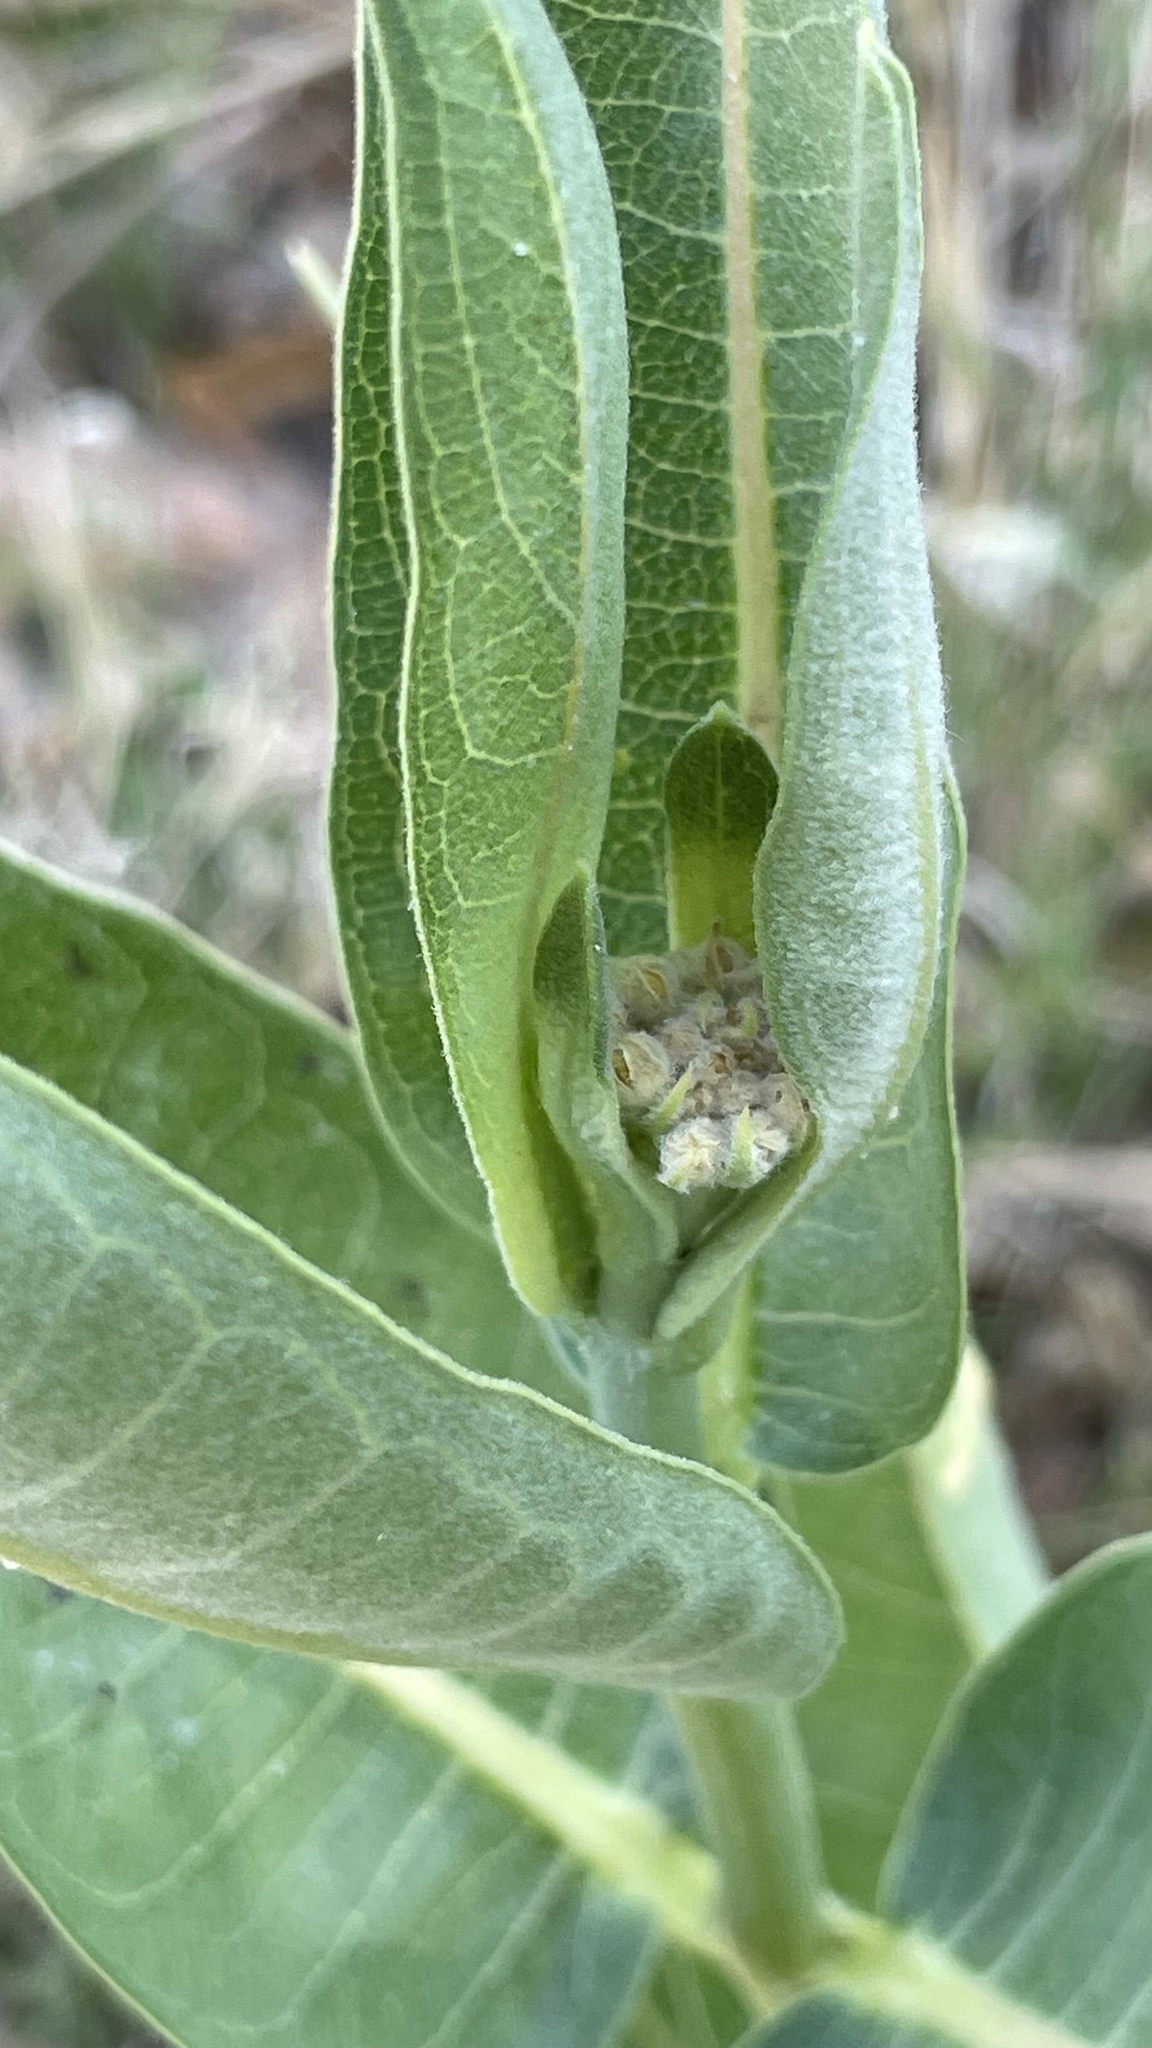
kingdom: Plantae
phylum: Tracheophyta
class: Magnoliopsida
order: Gentianales
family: Apocynaceae
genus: Asclepias
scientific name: Asclepias speciosa
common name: Showy milkweed
